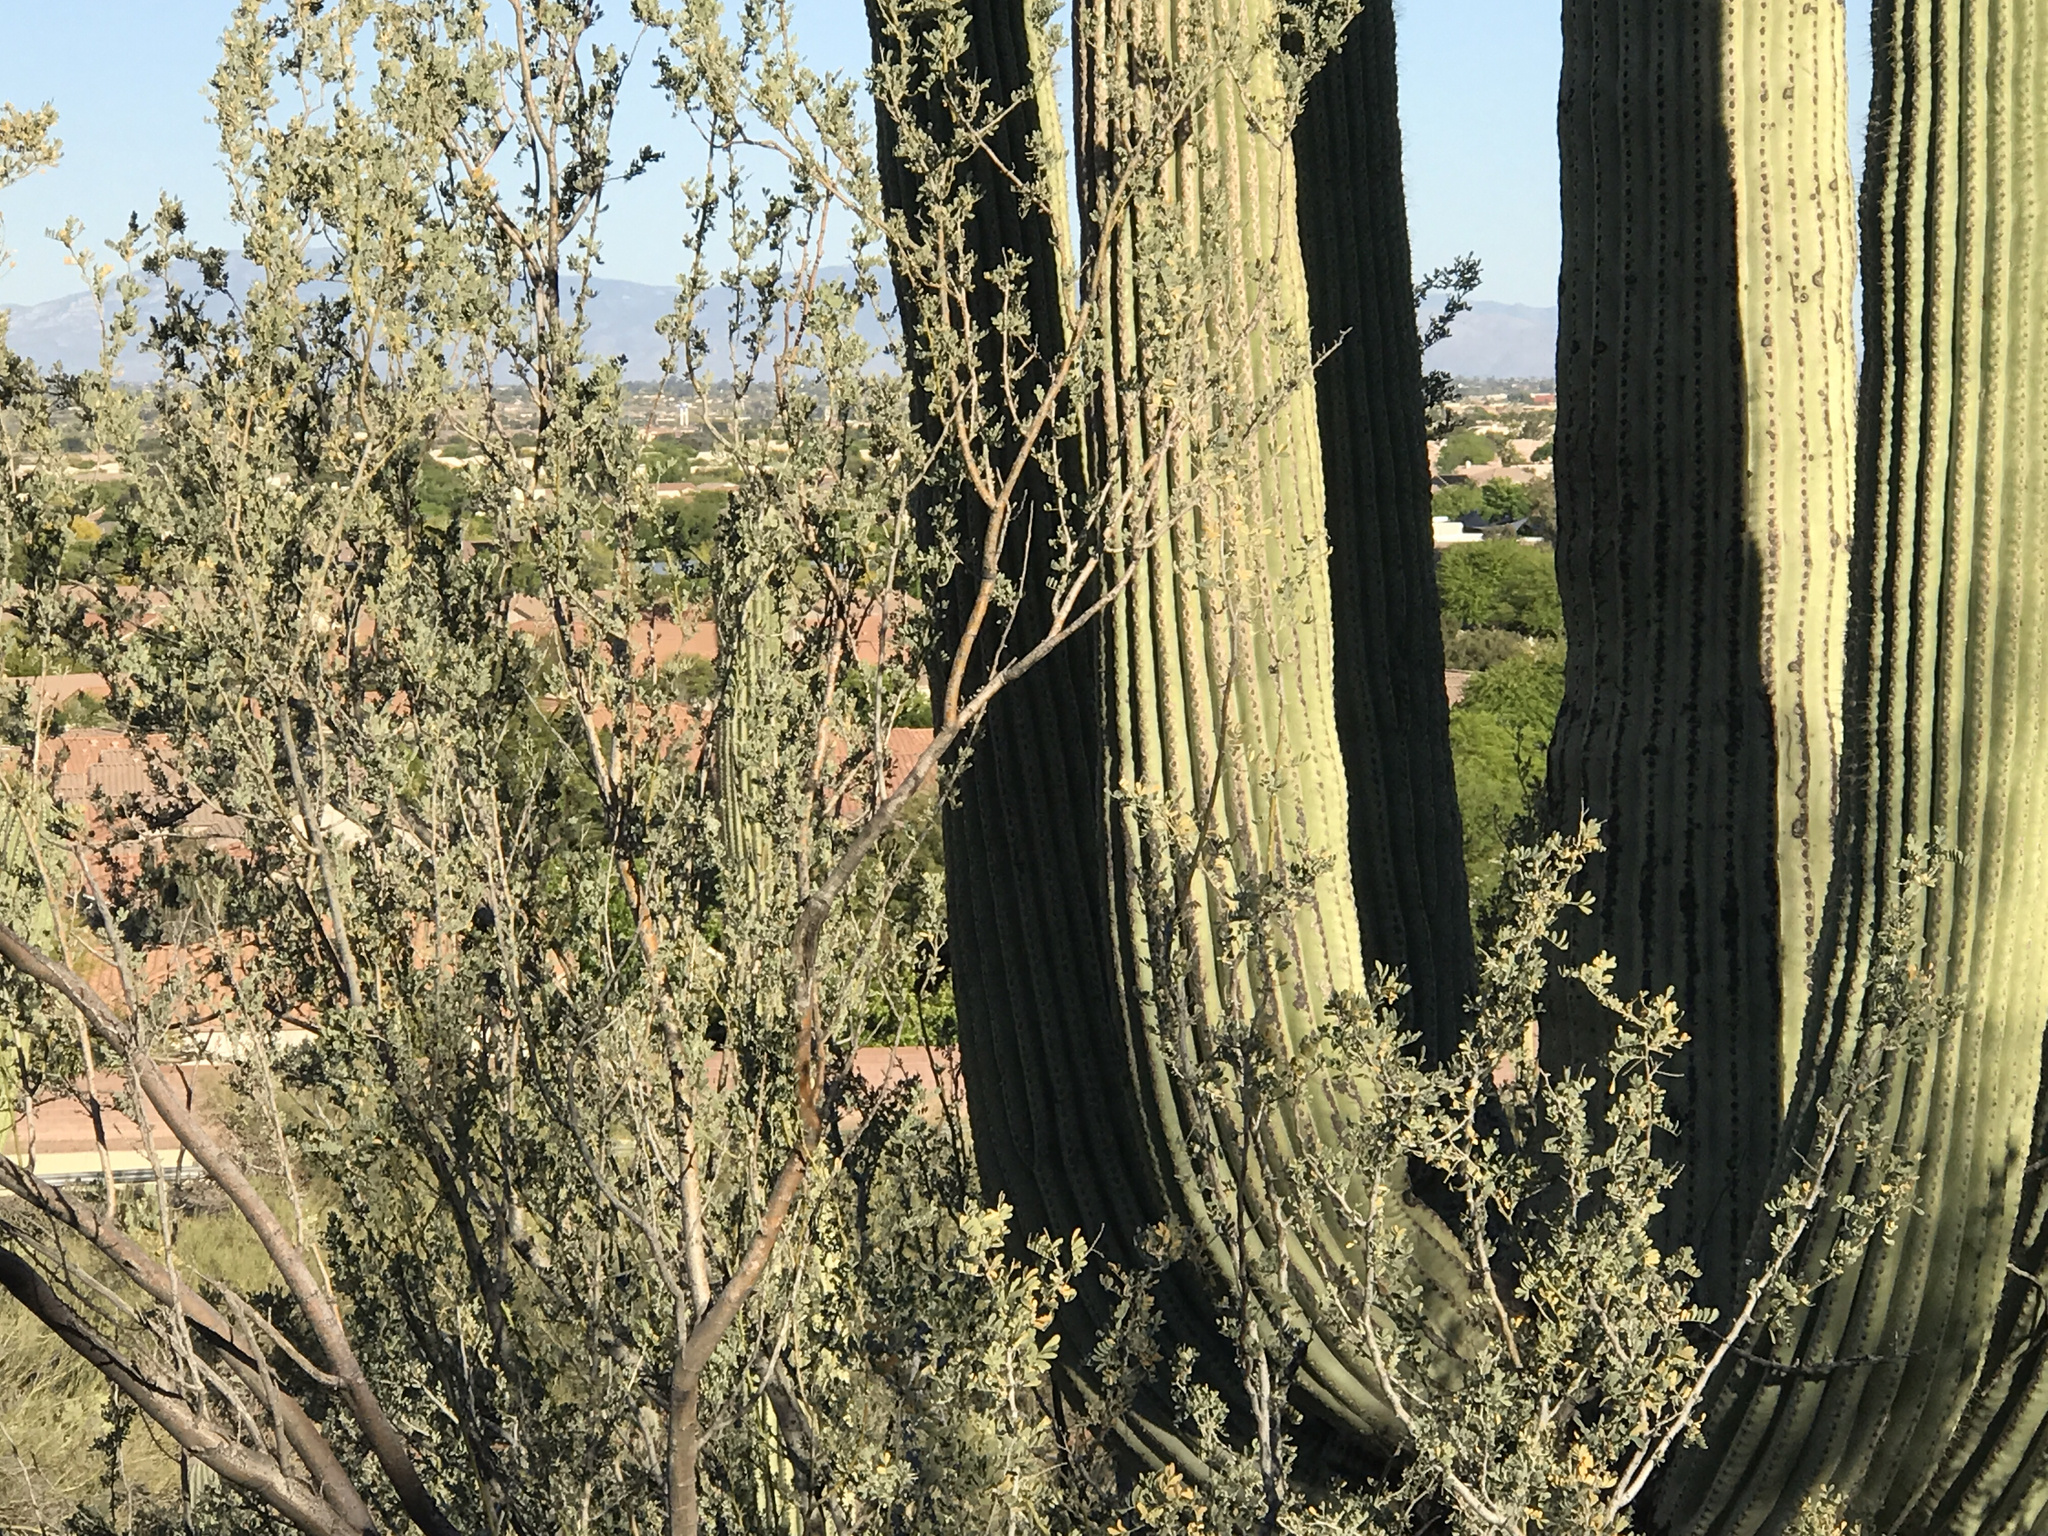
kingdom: Plantae
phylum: Tracheophyta
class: Magnoliopsida
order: Fabales
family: Fabaceae
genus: Olneya
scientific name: Olneya tesota
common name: Desert ironwood
